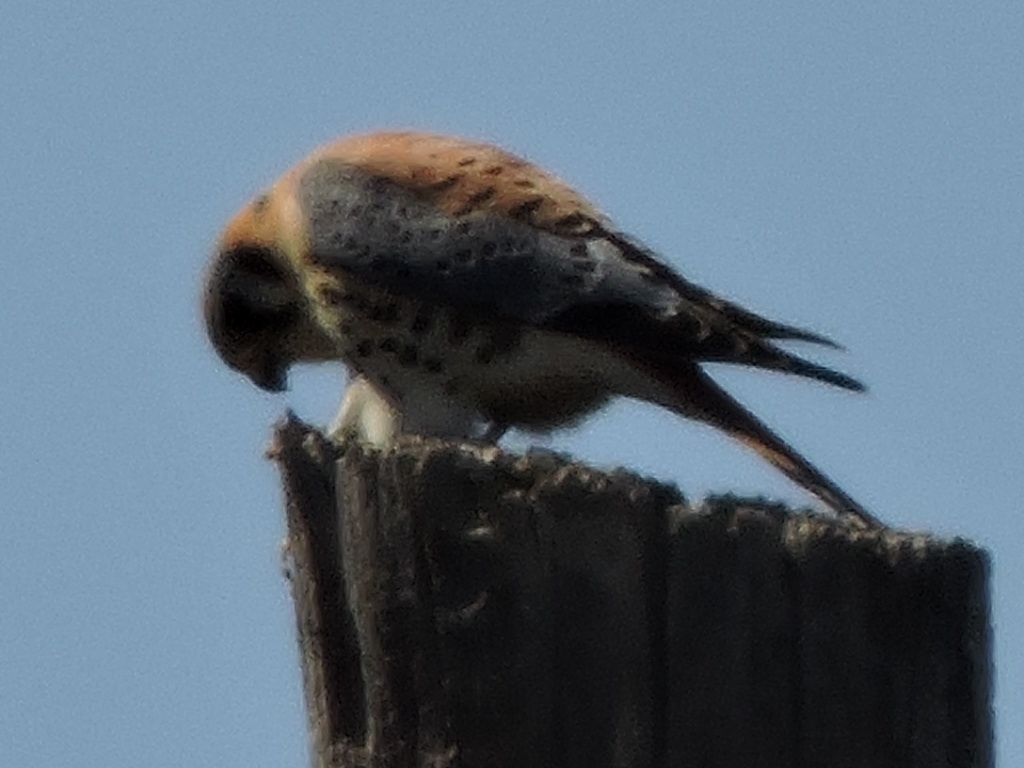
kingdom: Animalia
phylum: Chordata
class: Aves
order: Falconiformes
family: Falconidae
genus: Falco
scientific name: Falco sparverius
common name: American kestrel
